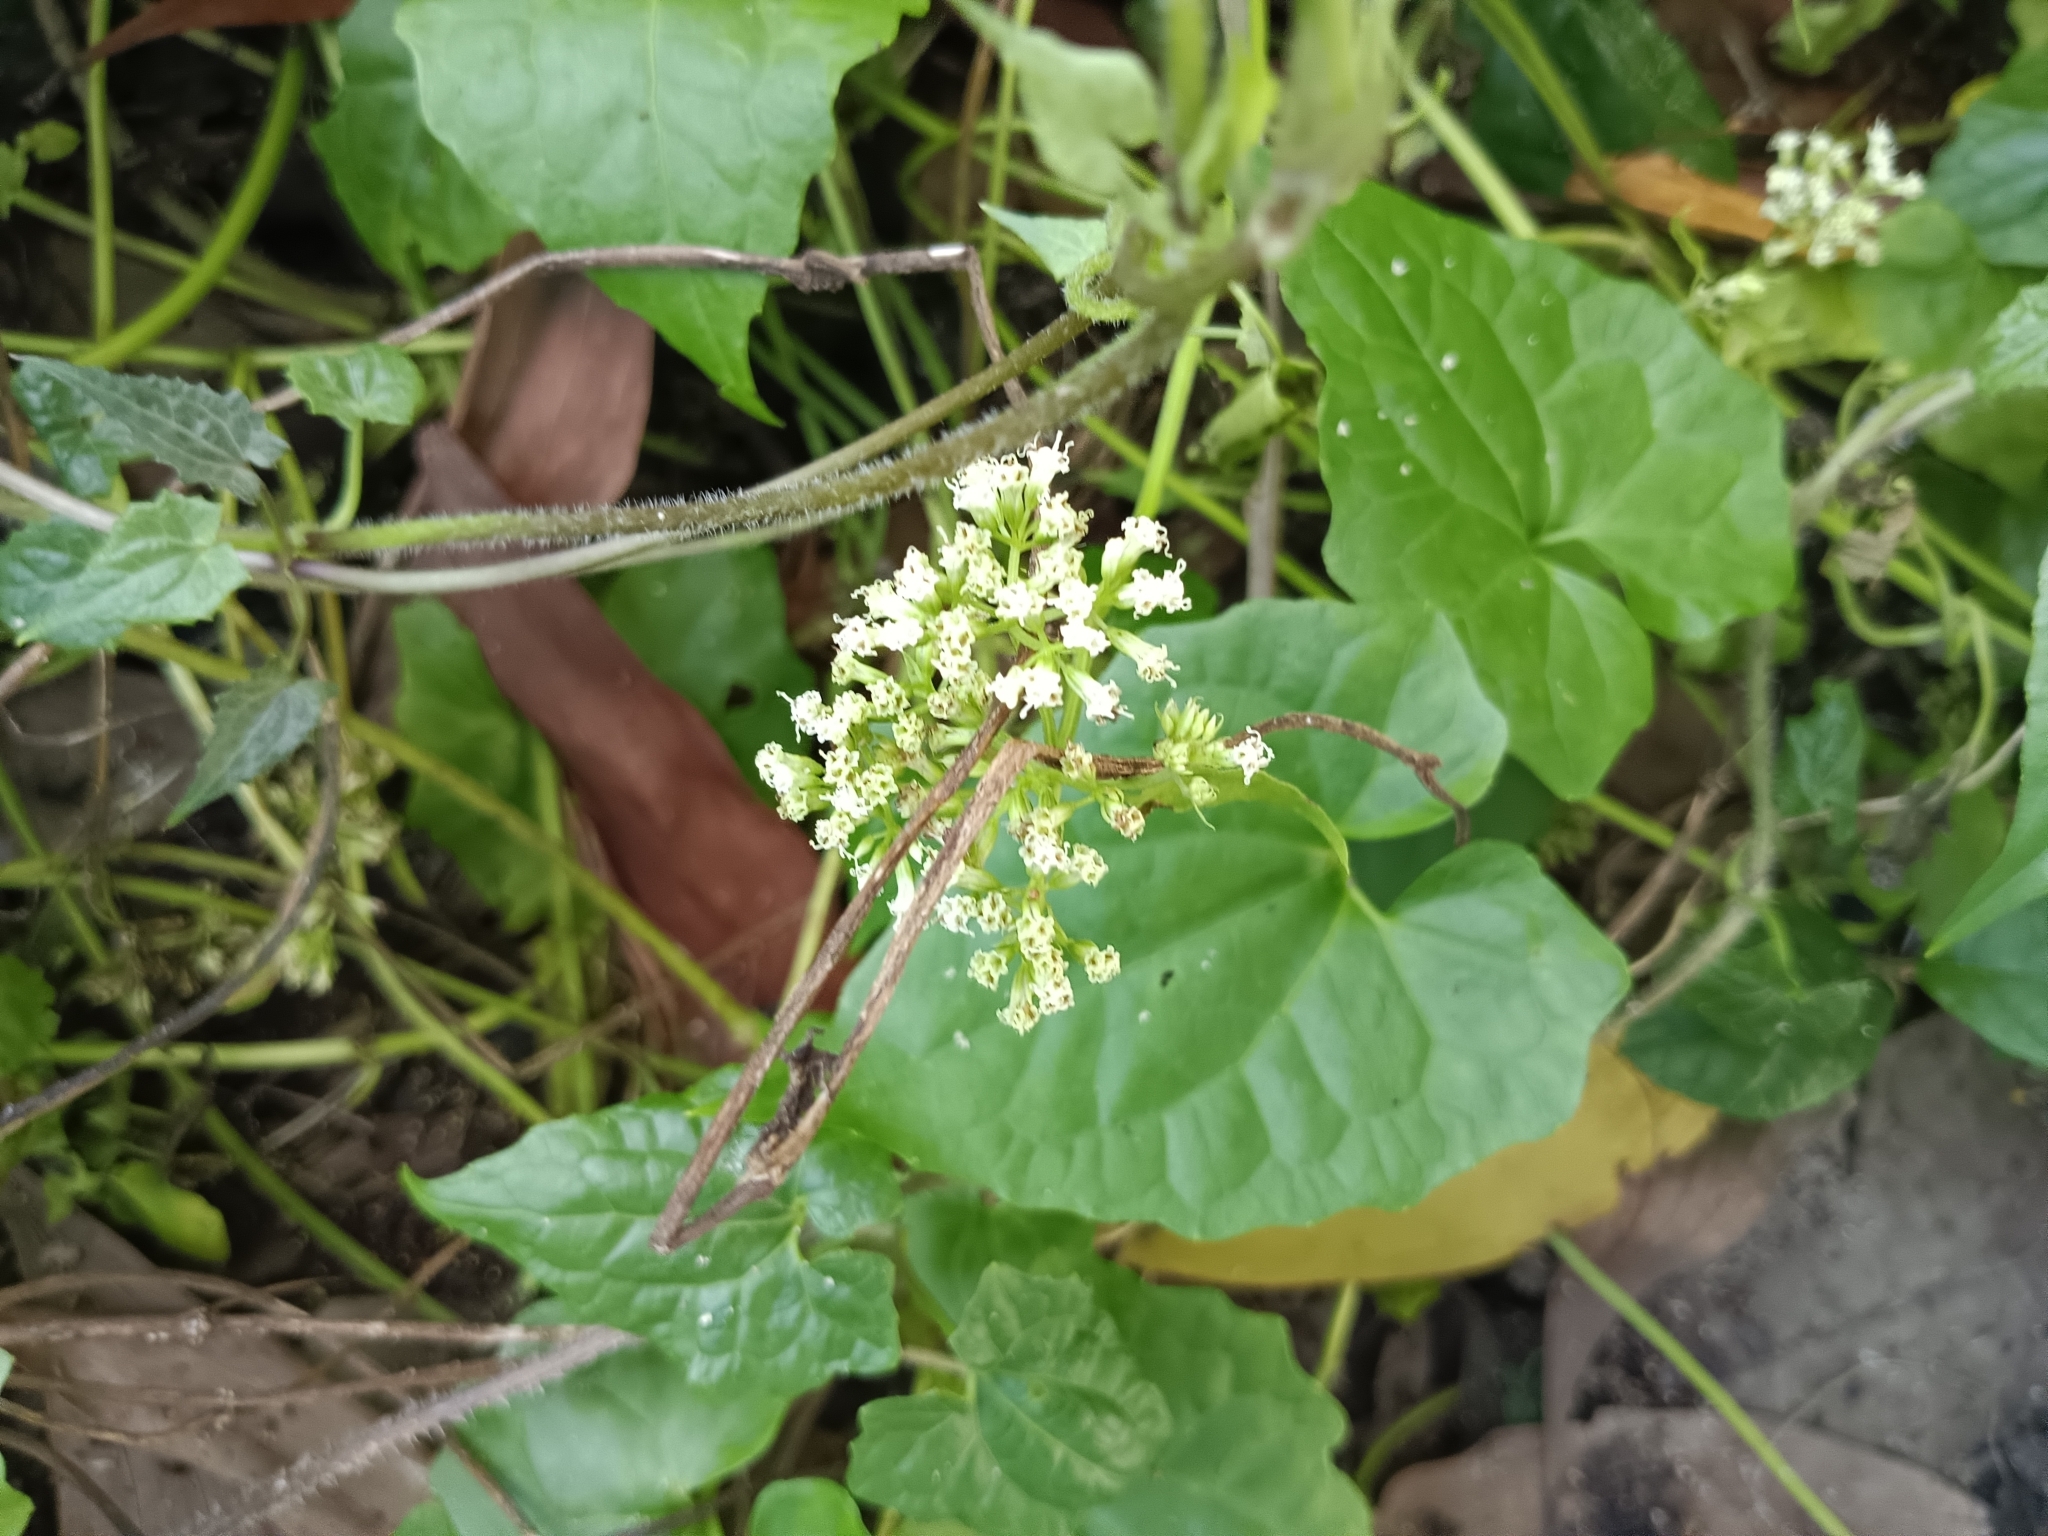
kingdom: Plantae
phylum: Tracheophyta
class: Magnoliopsida
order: Asterales
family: Asteraceae
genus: Mikania
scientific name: Mikania micrantha
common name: Mile-a-minute
